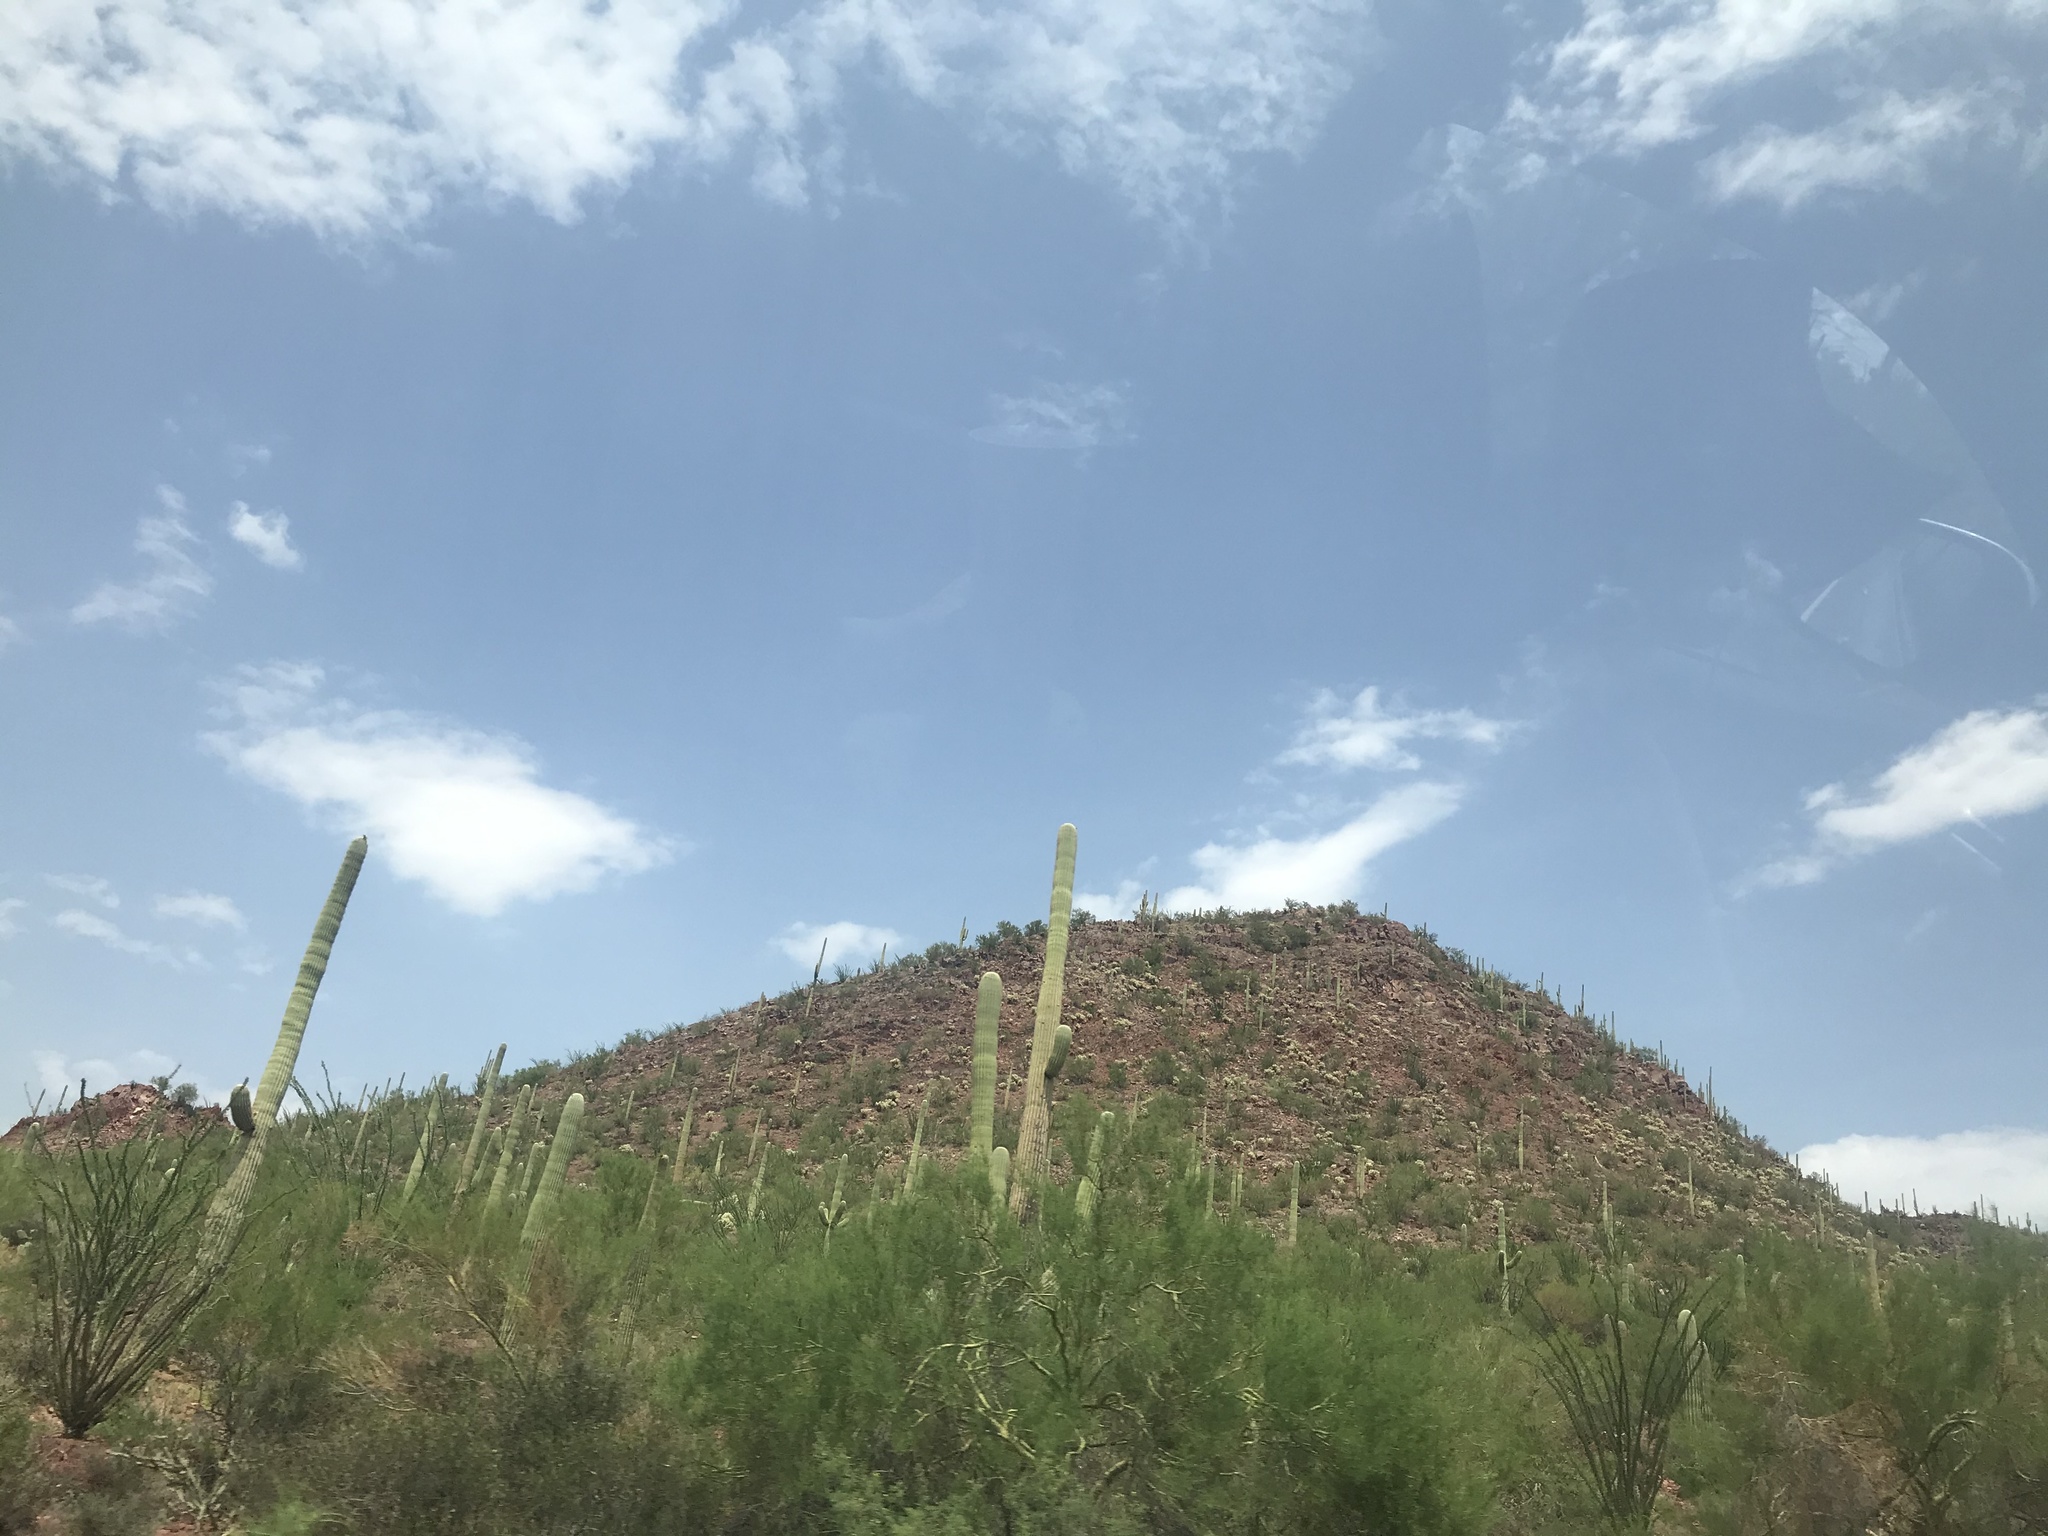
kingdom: Plantae
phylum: Tracheophyta
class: Magnoliopsida
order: Caryophyllales
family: Cactaceae
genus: Carnegiea
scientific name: Carnegiea gigantea
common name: Saguaro
